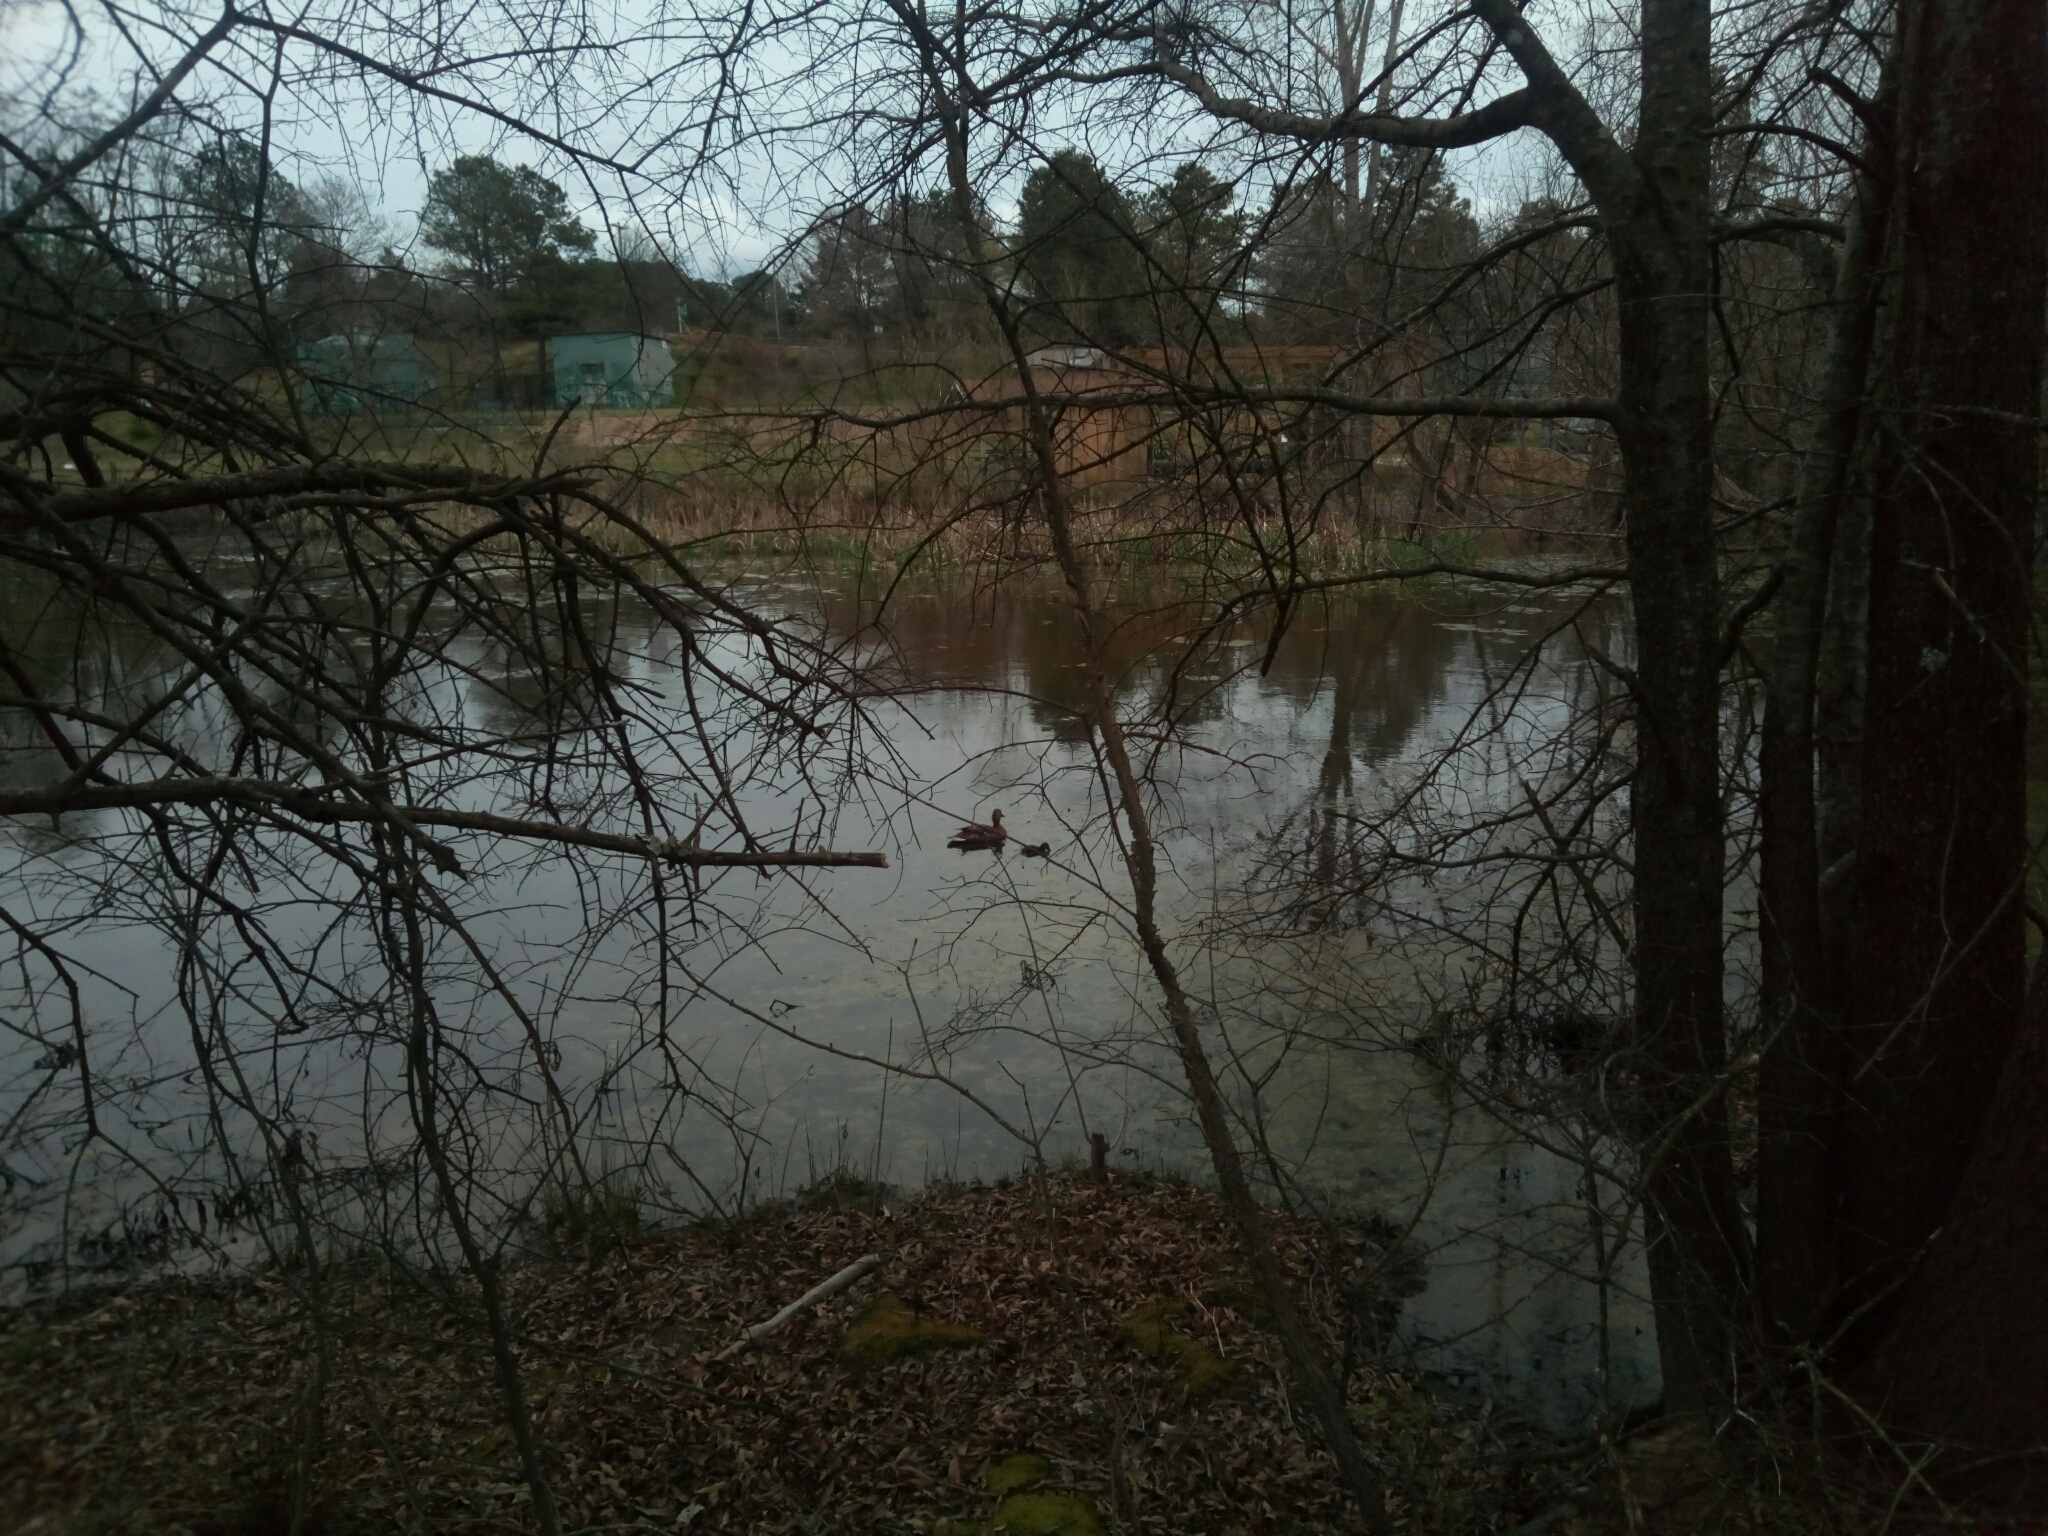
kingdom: Animalia
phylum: Chordata
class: Aves
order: Anseriformes
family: Anatidae
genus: Anas
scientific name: Anas platyrhynchos
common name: Mallard
